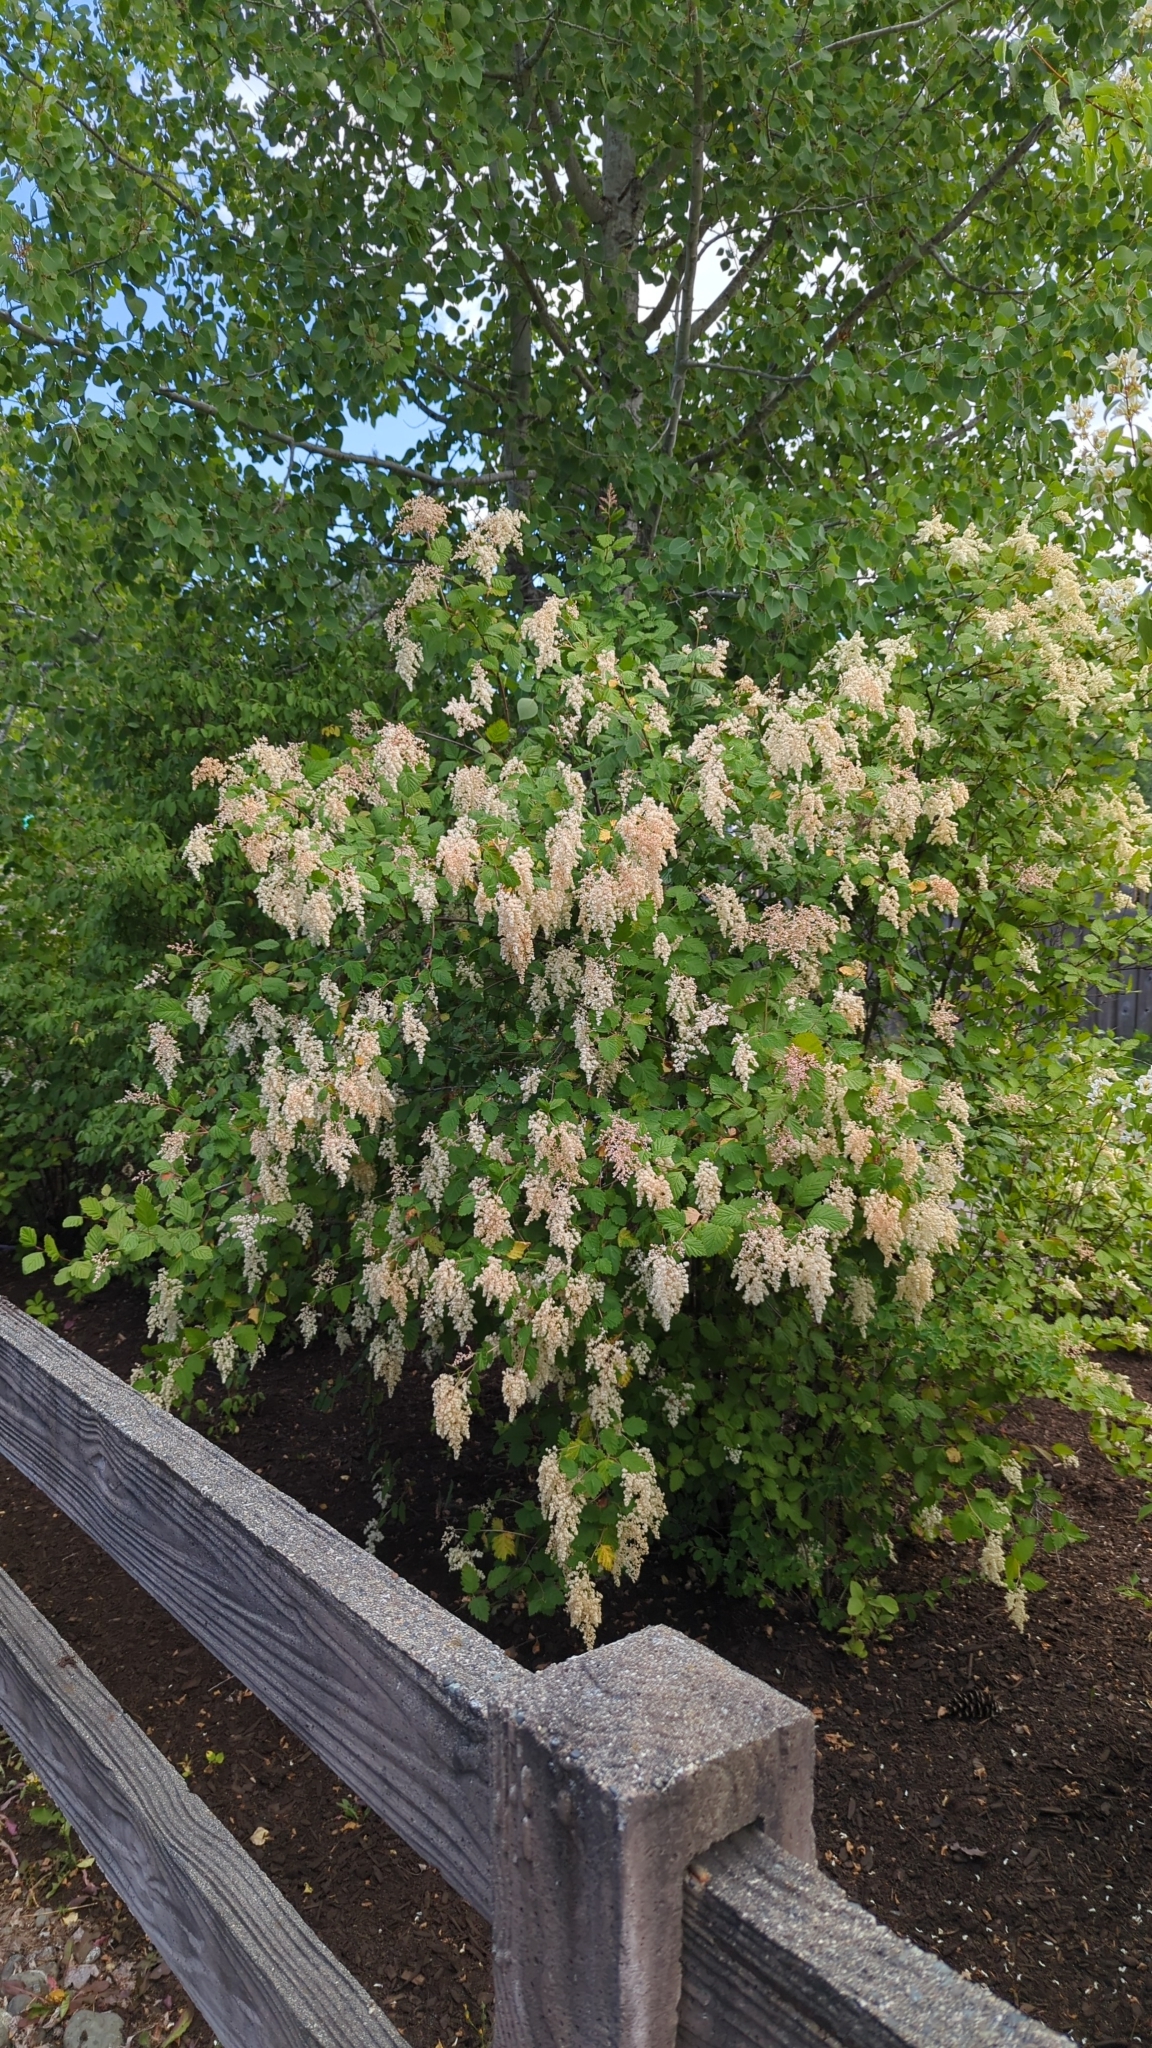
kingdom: Plantae
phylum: Tracheophyta
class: Magnoliopsida
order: Rosales
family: Rosaceae
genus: Holodiscus
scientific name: Holodiscus discolor
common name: Oceanspray
